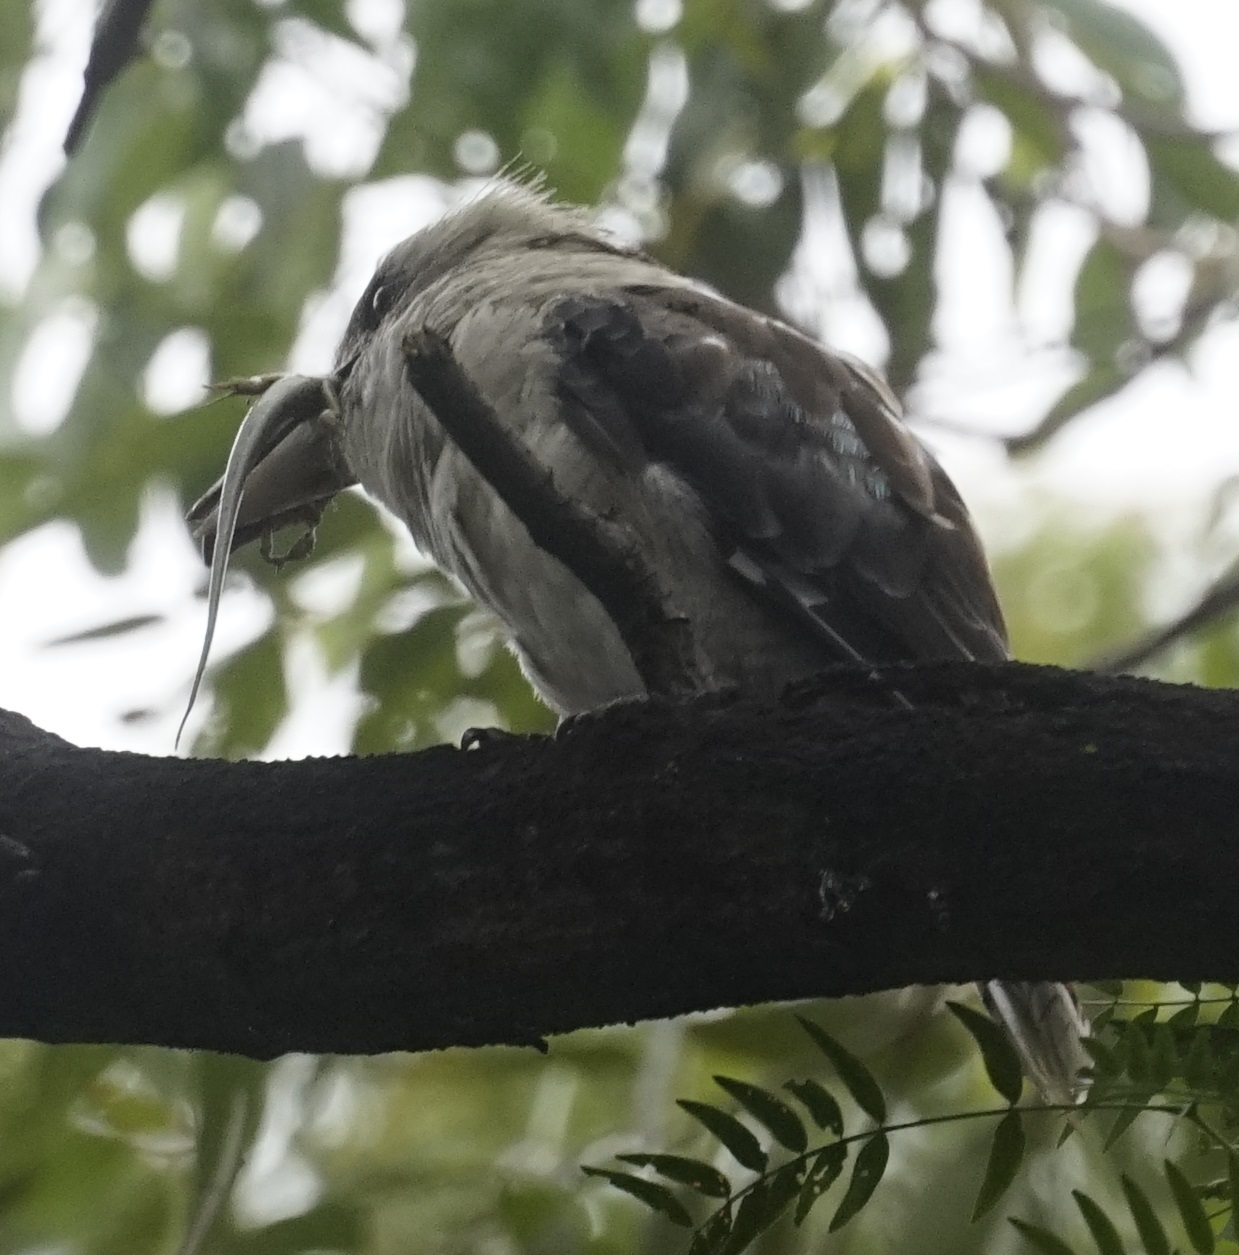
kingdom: Animalia
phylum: Chordata
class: Aves
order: Coraciiformes
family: Alcedinidae
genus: Dacelo
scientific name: Dacelo novaeguineae
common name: Laughing kookaburra
